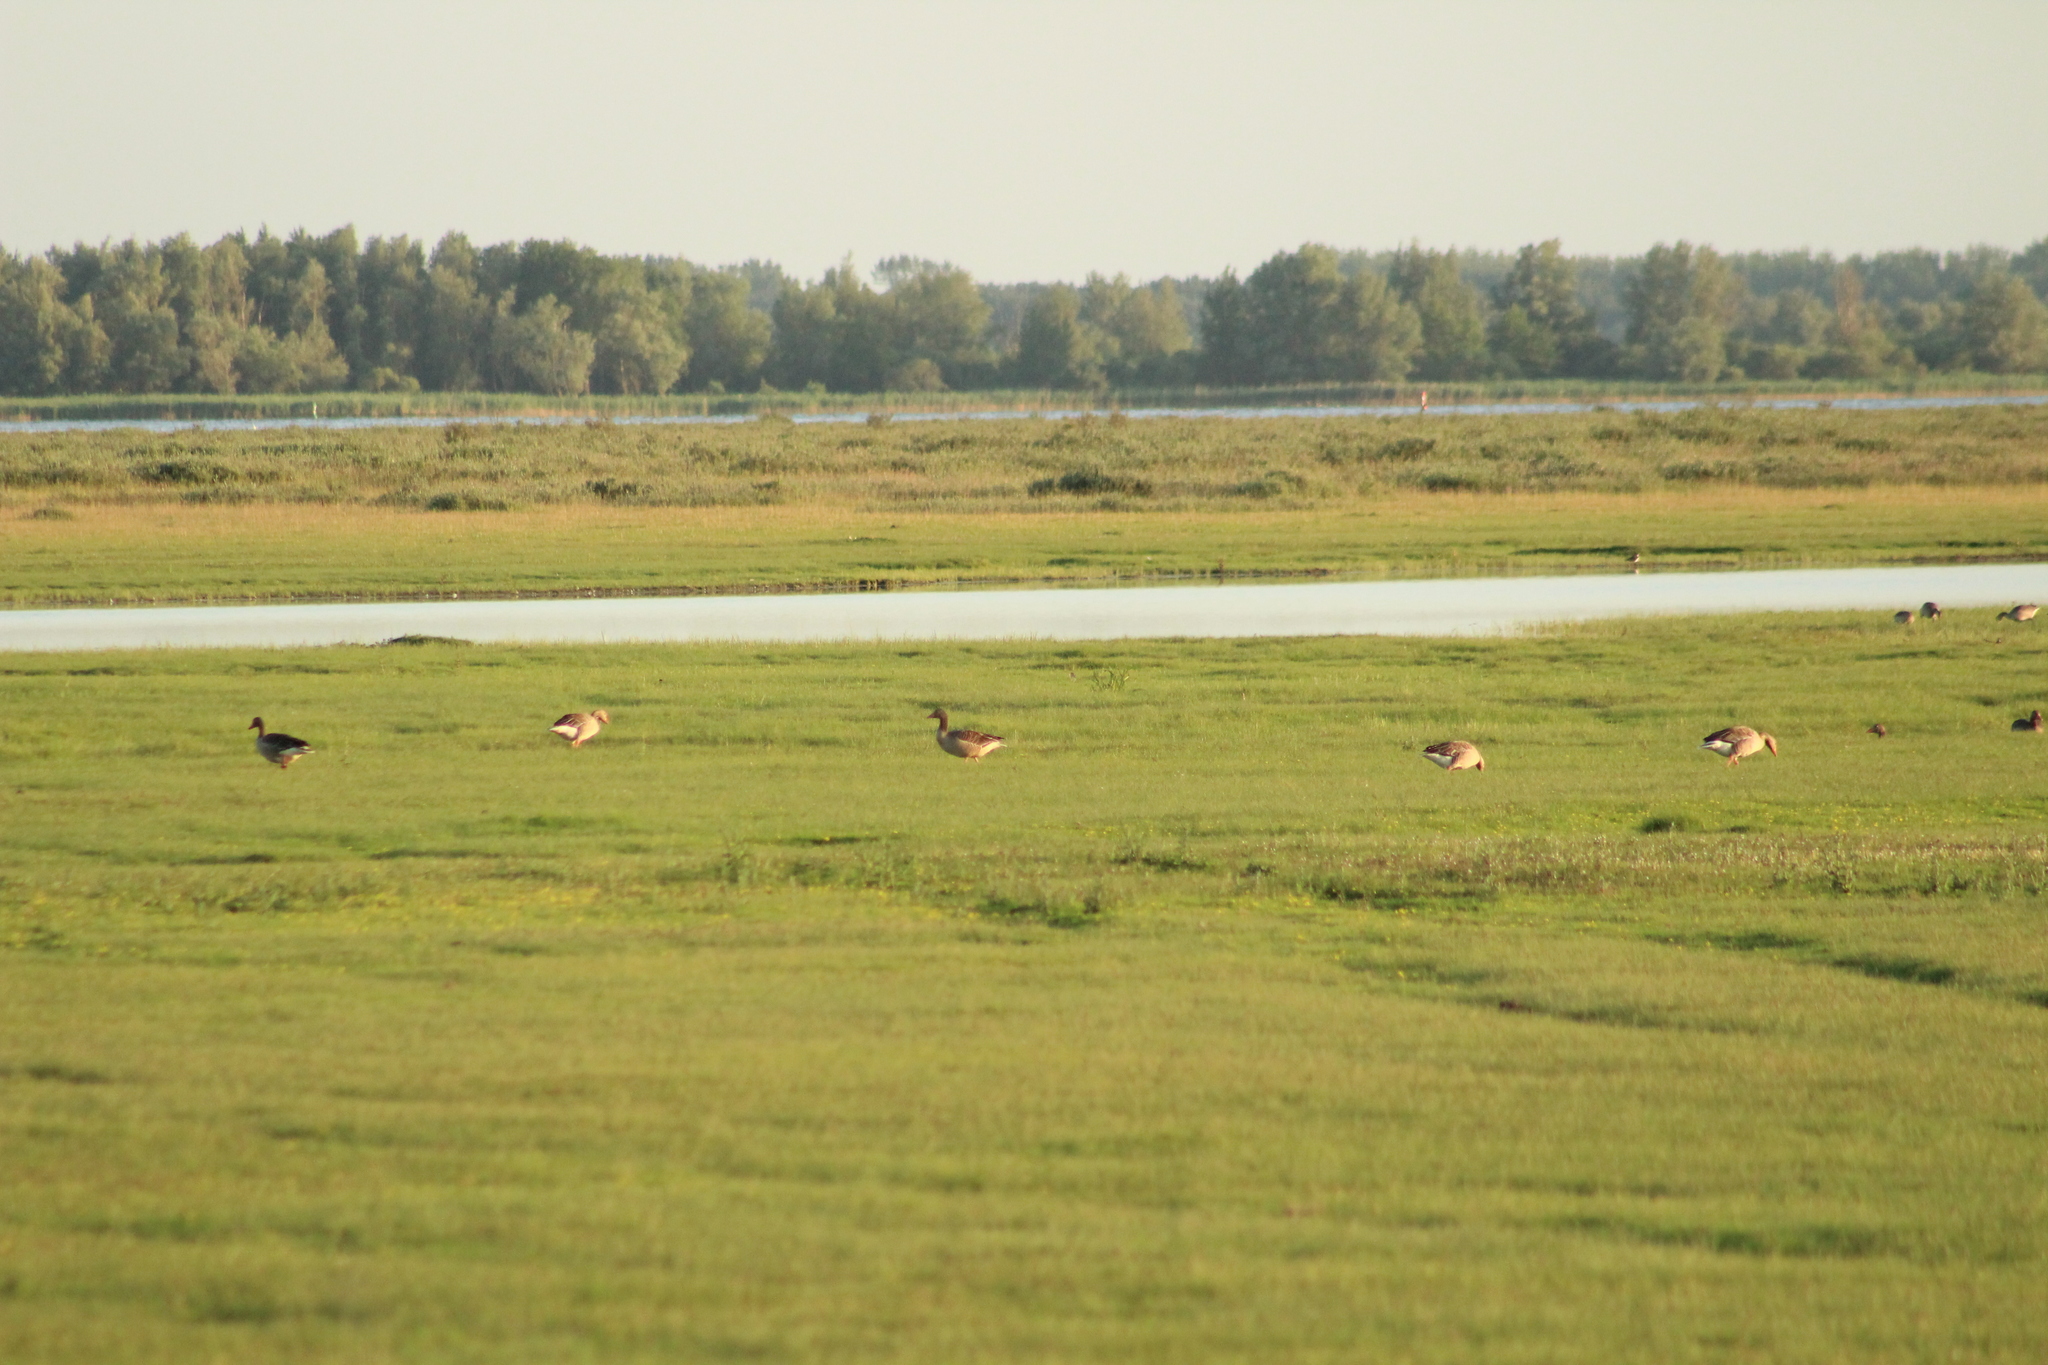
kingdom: Animalia
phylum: Chordata
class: Aves
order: Anseriformes
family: Anatidae
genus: Anser
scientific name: Anser anser
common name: Greylag goose
